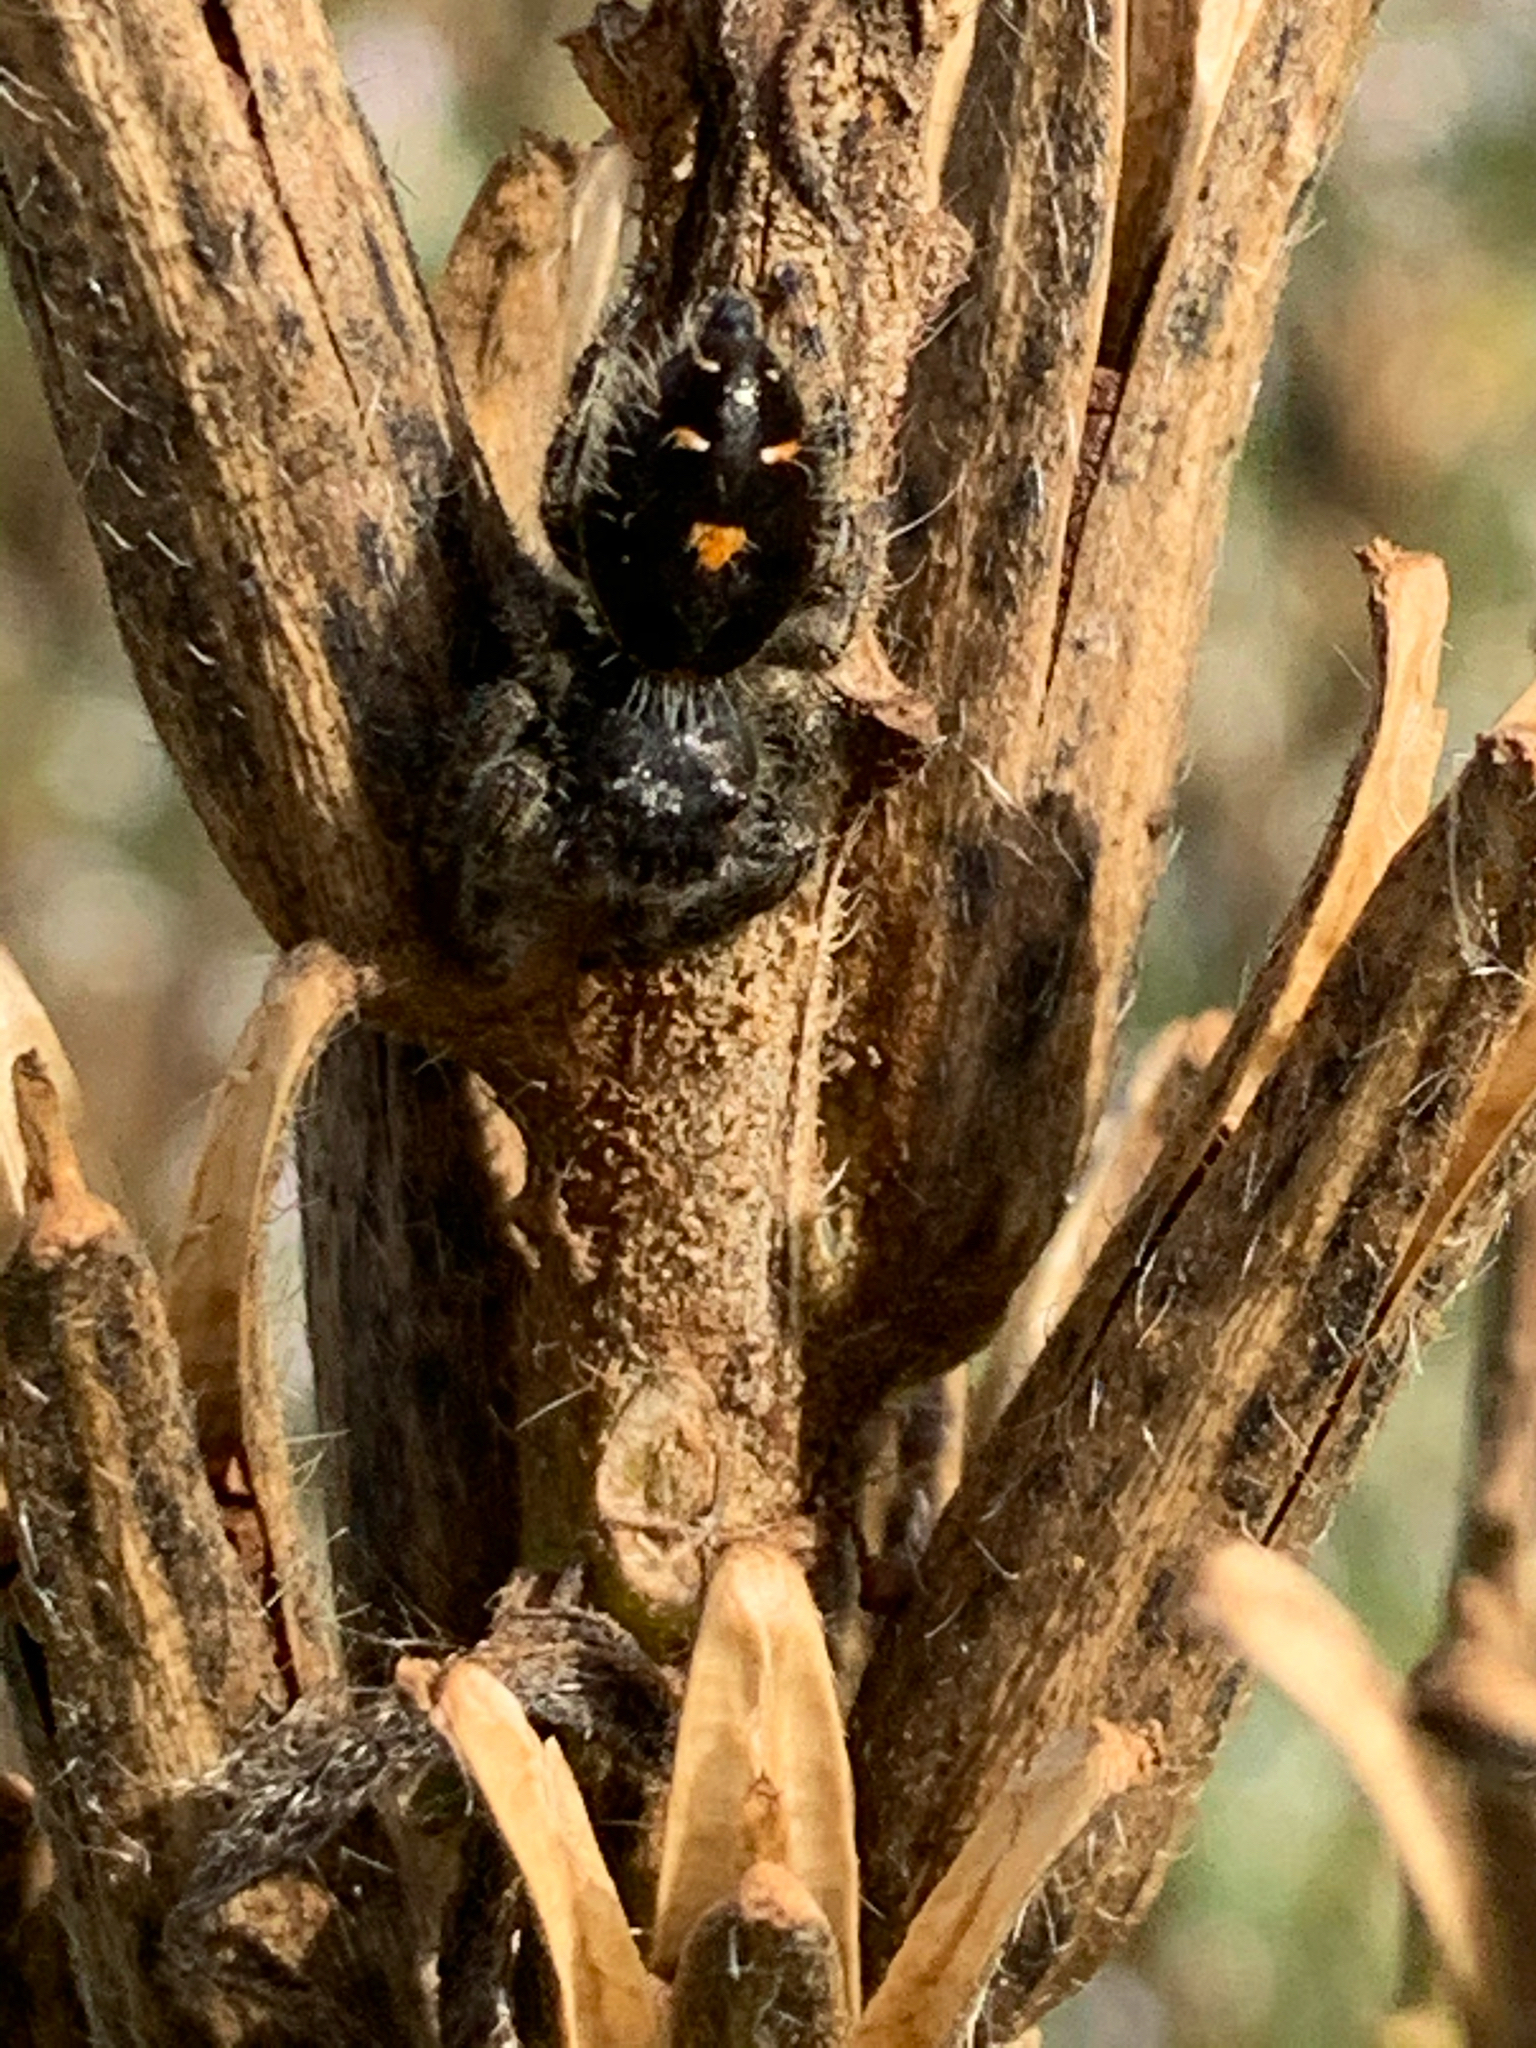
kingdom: Animalia
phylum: Arthropoda
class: Arachnida
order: Araneae
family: Salticidae
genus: Phidippus
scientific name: Phidippus audax
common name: Bold jumper
